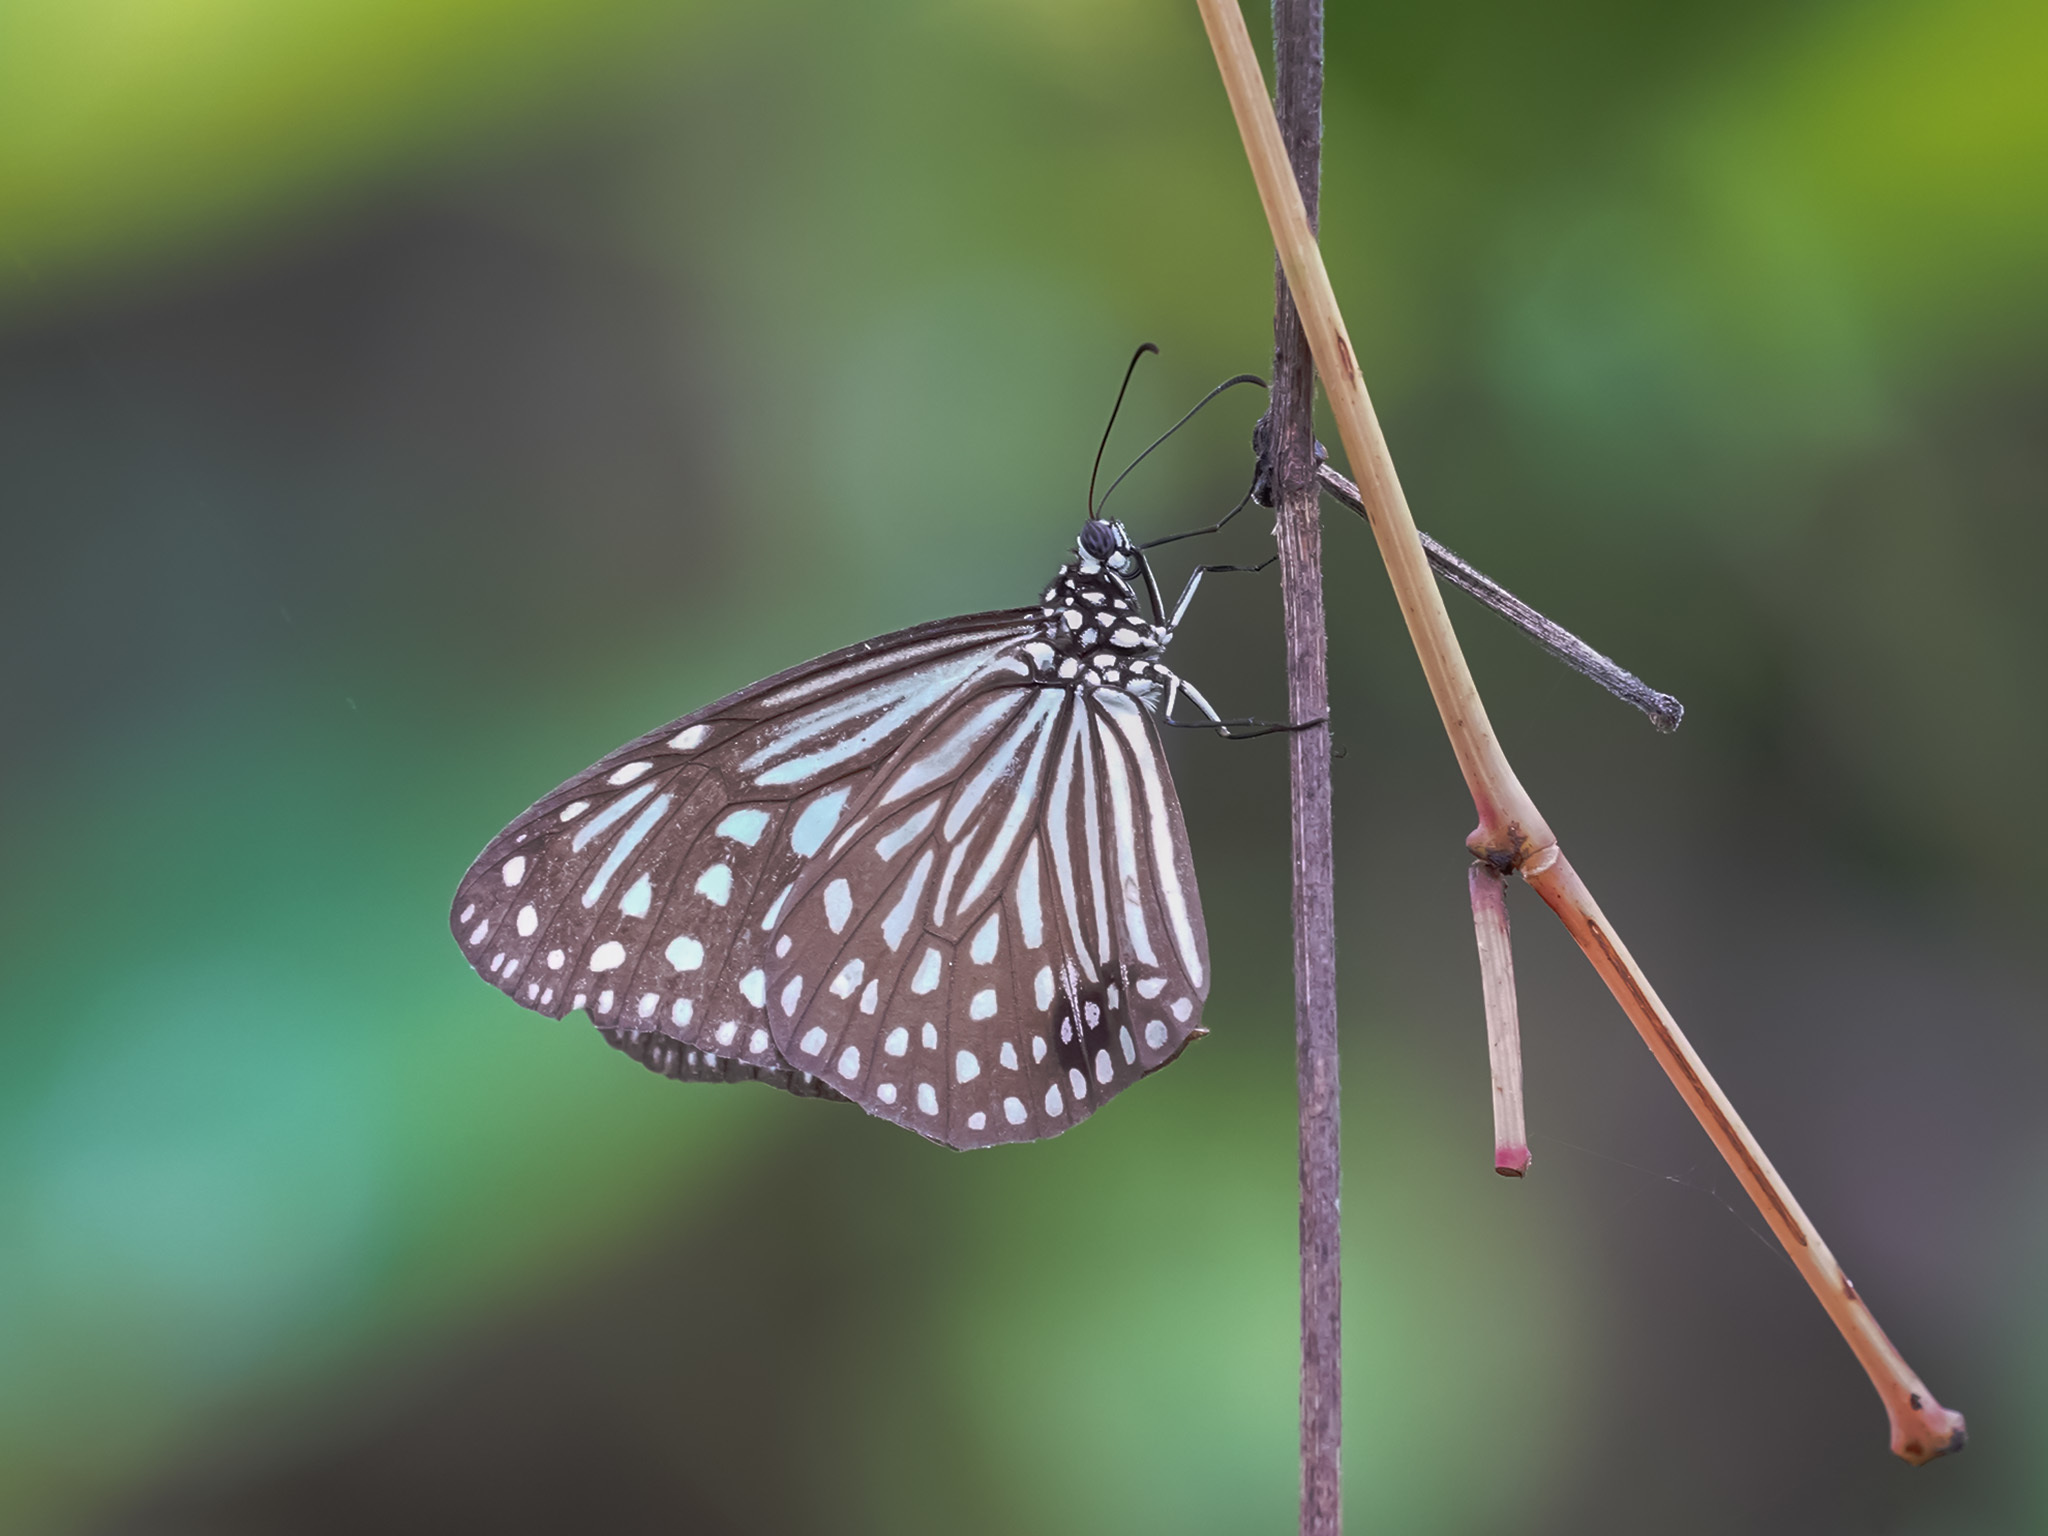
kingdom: Animalia
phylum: Arthropoda
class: Insecta
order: Lepidoptera
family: Nymphalidae
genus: Parantica
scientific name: Parantica agleoides
